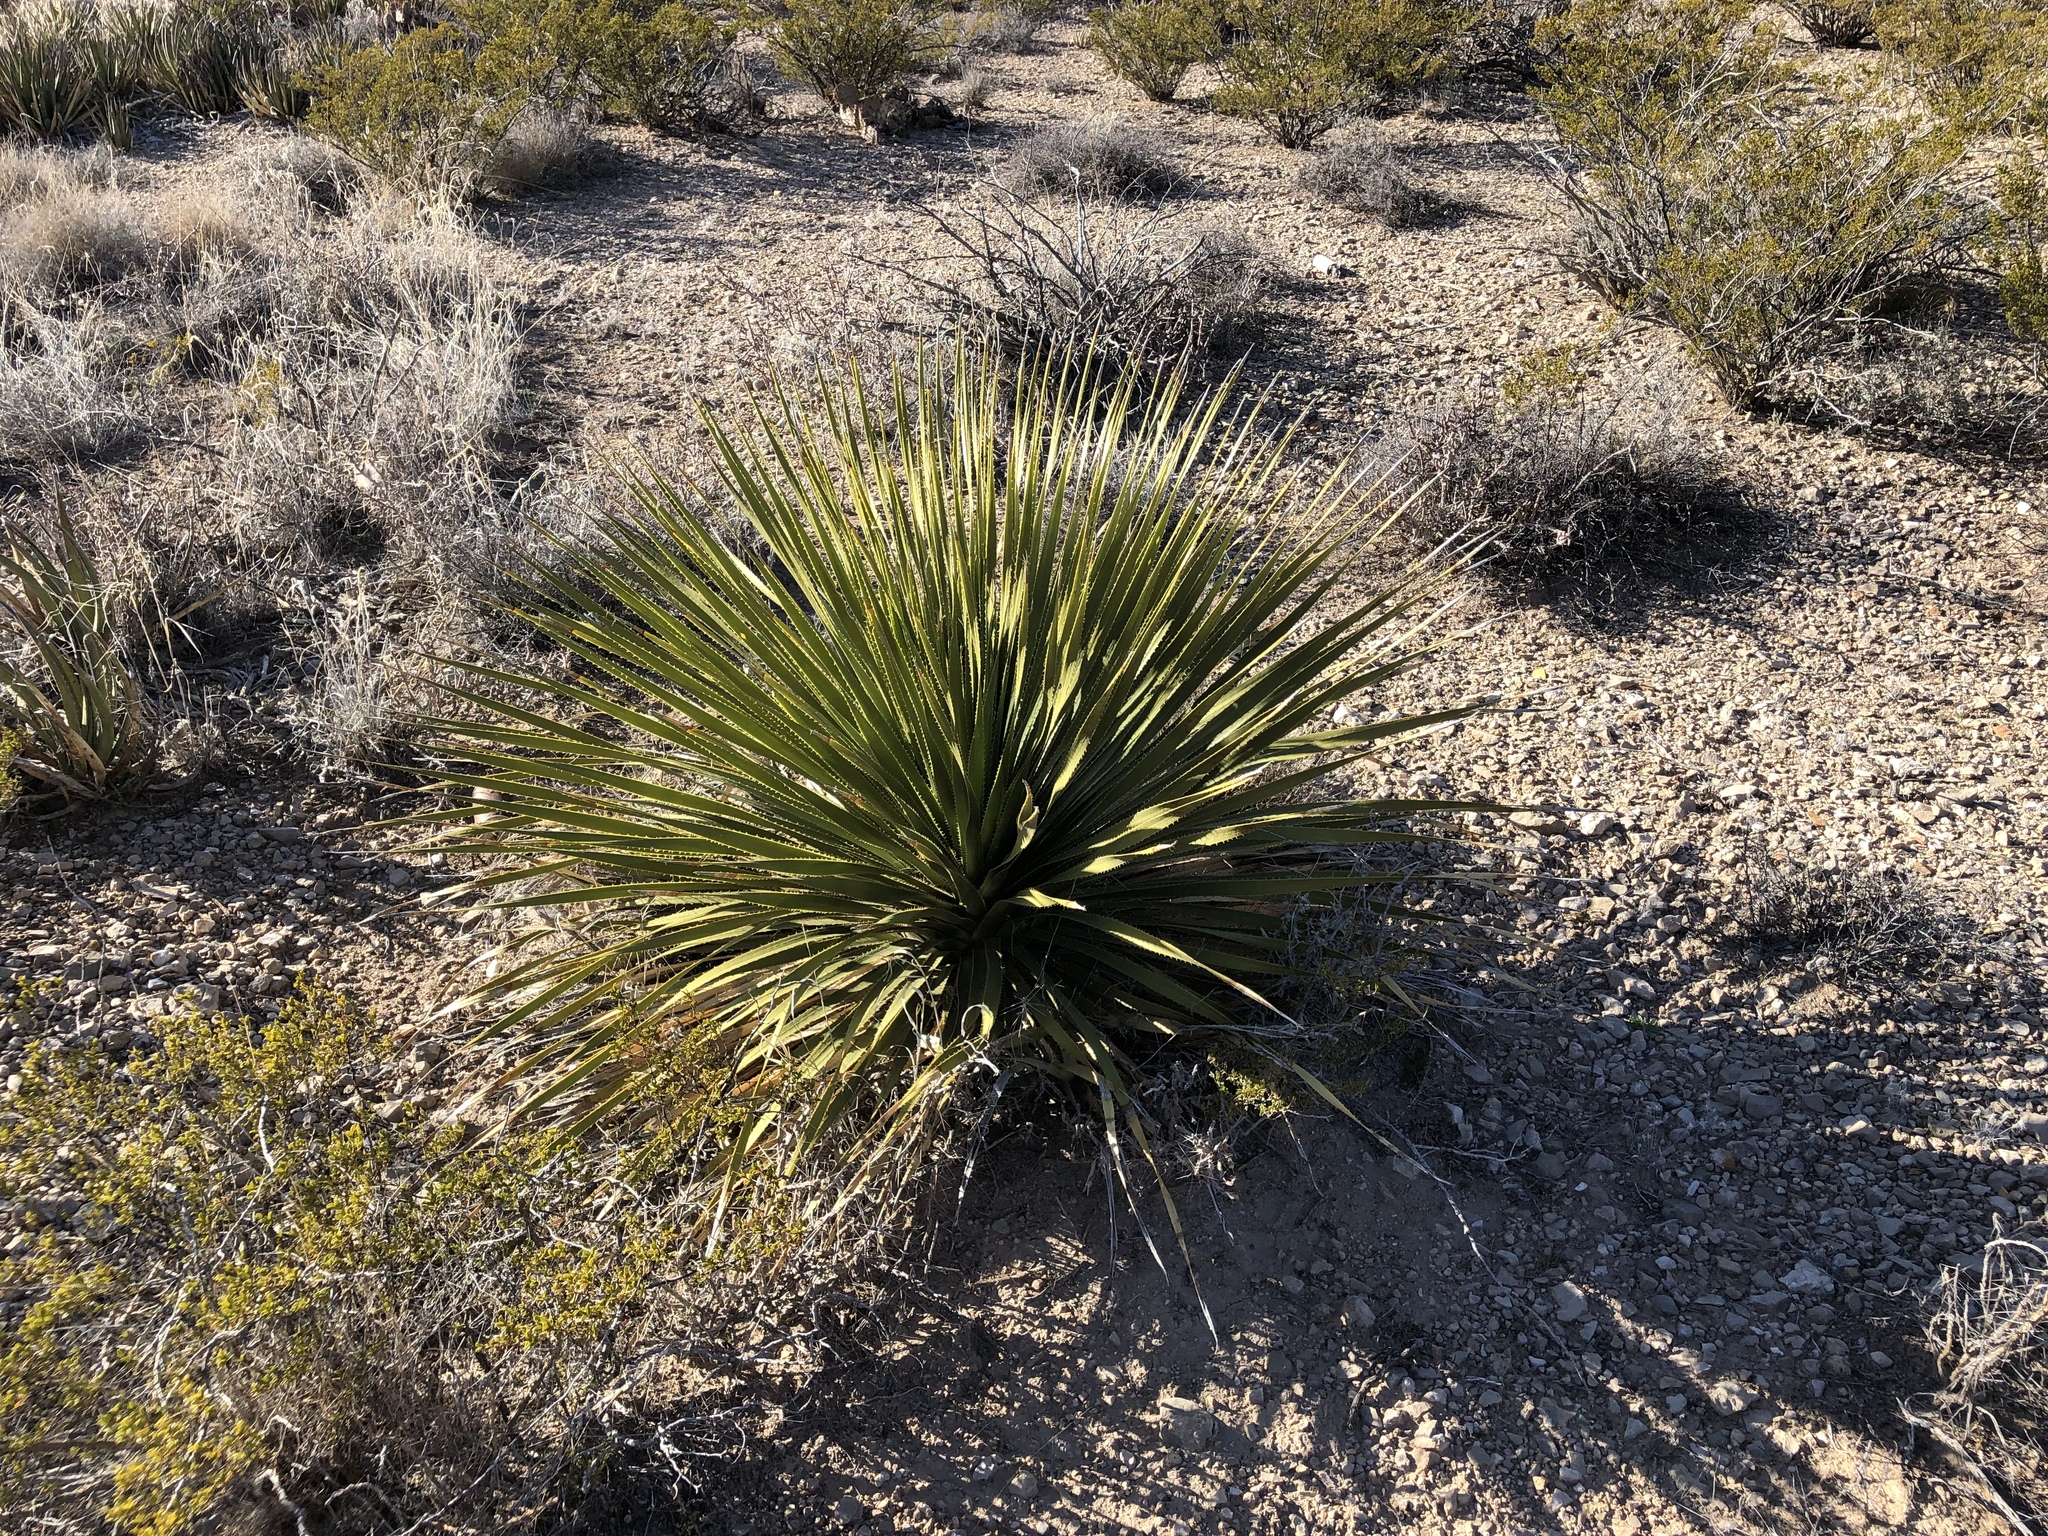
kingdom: Plantae
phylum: Tracheophyta
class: Liliopsida
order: Asparagales
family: Asparagaceae
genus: Dasylirion
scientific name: Dasylirion wheeleri
